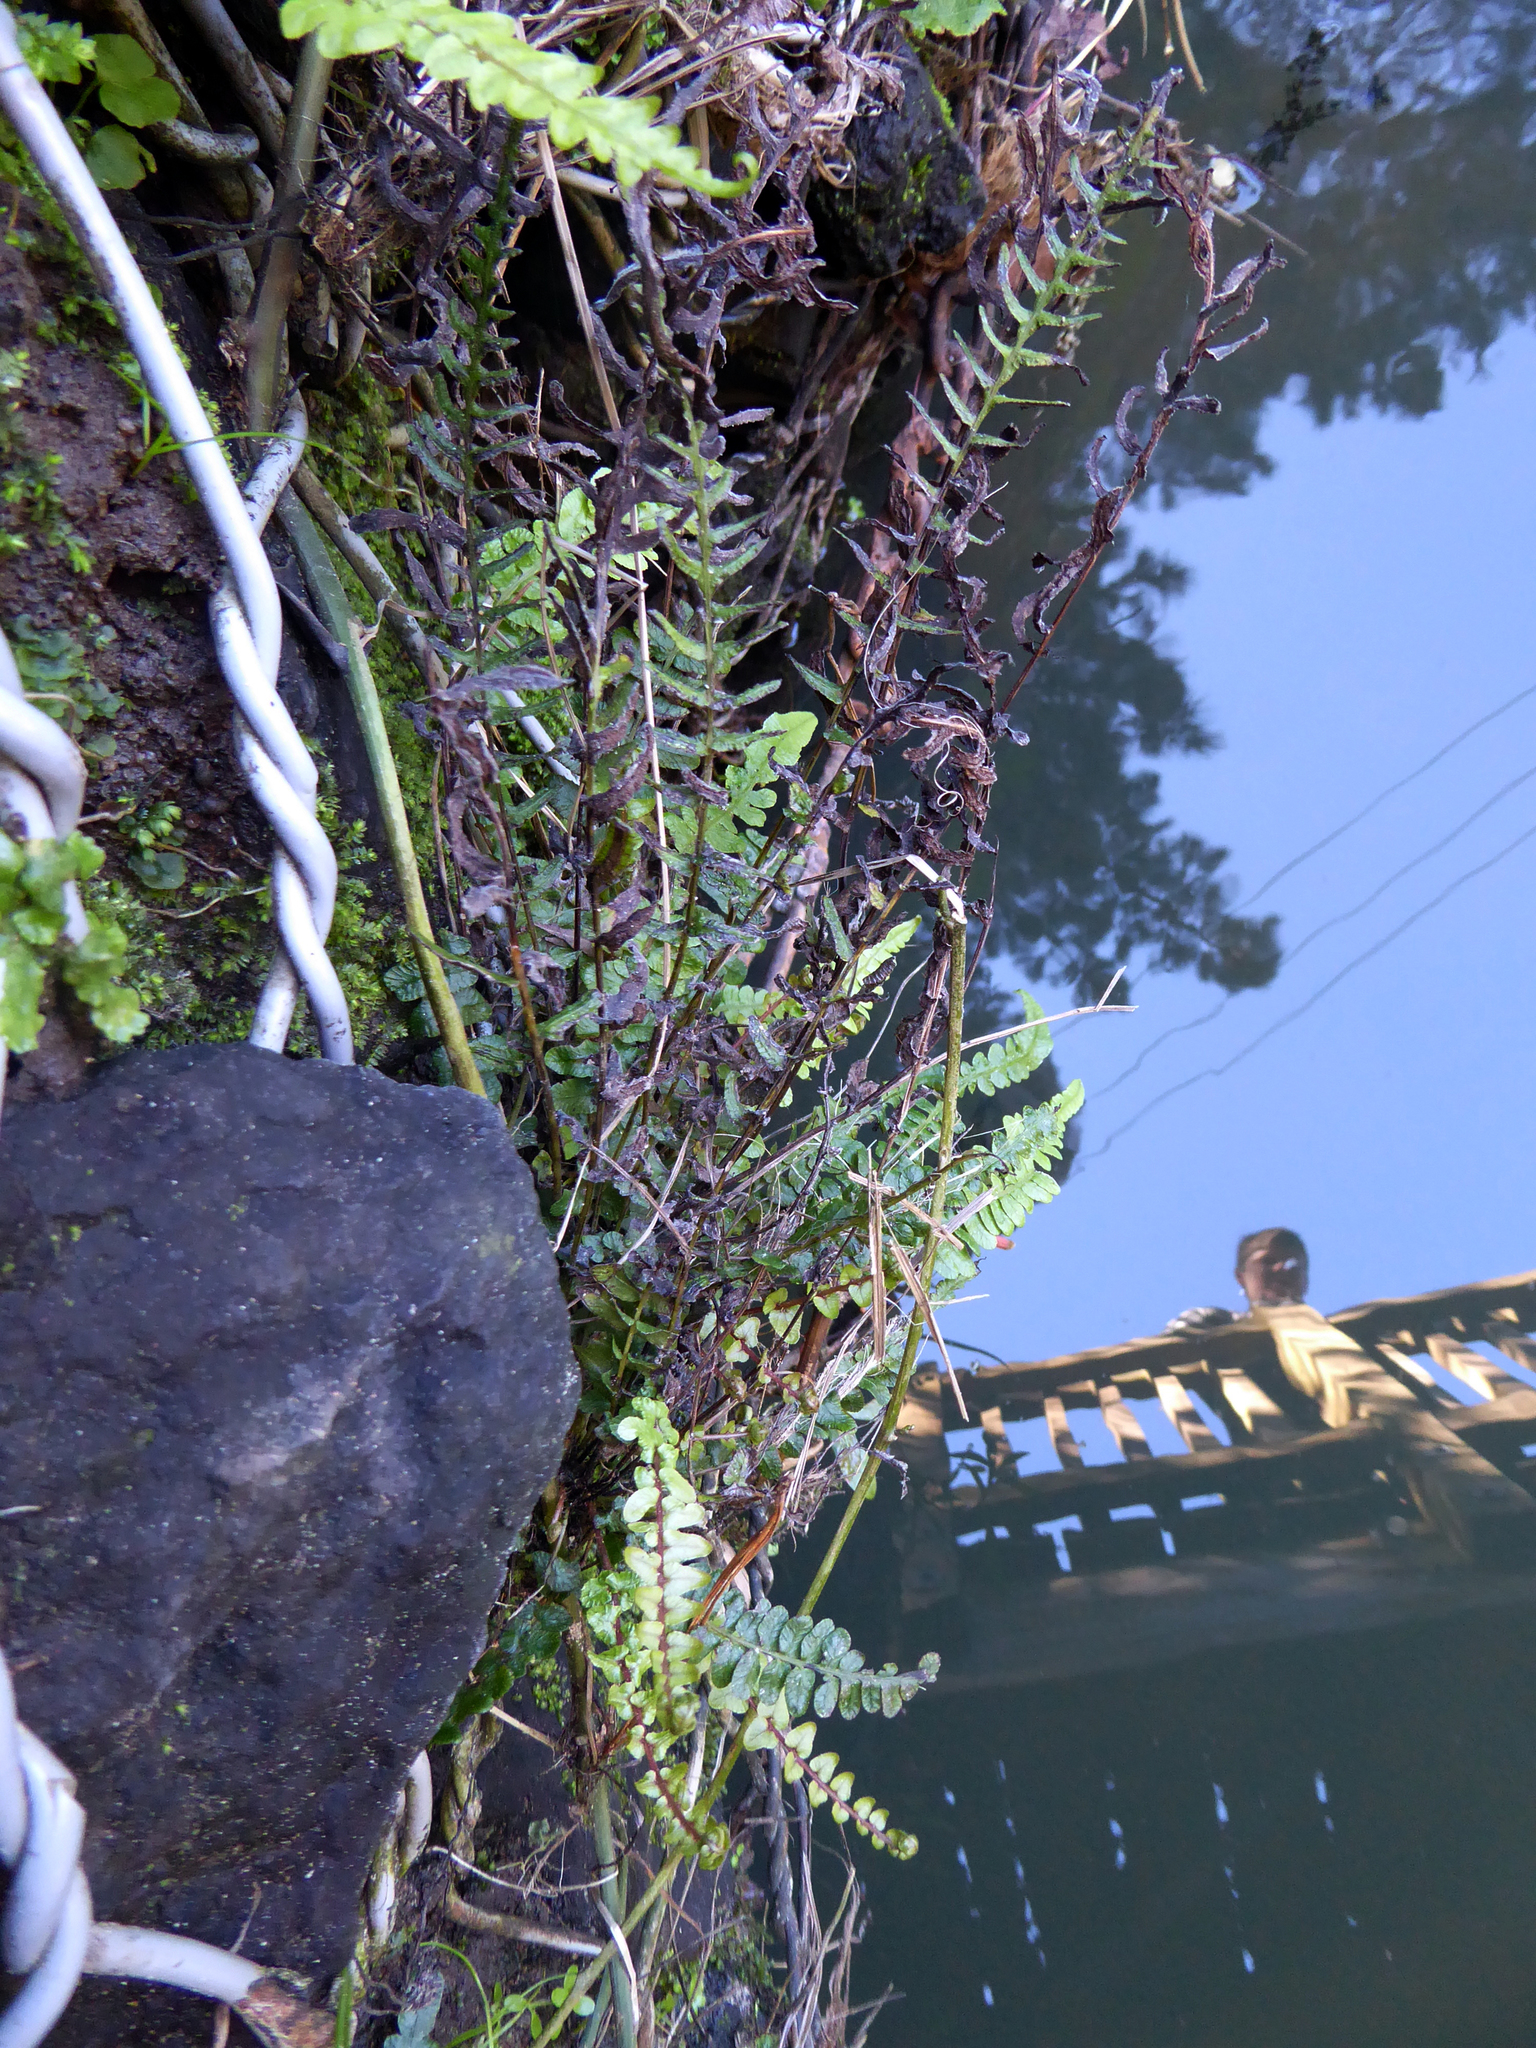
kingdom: Plantae
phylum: Tracheophyta
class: Polypodiopsida
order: Polypodiales
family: Blechnaceae
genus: Doodia
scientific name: Doodia squarrosa
